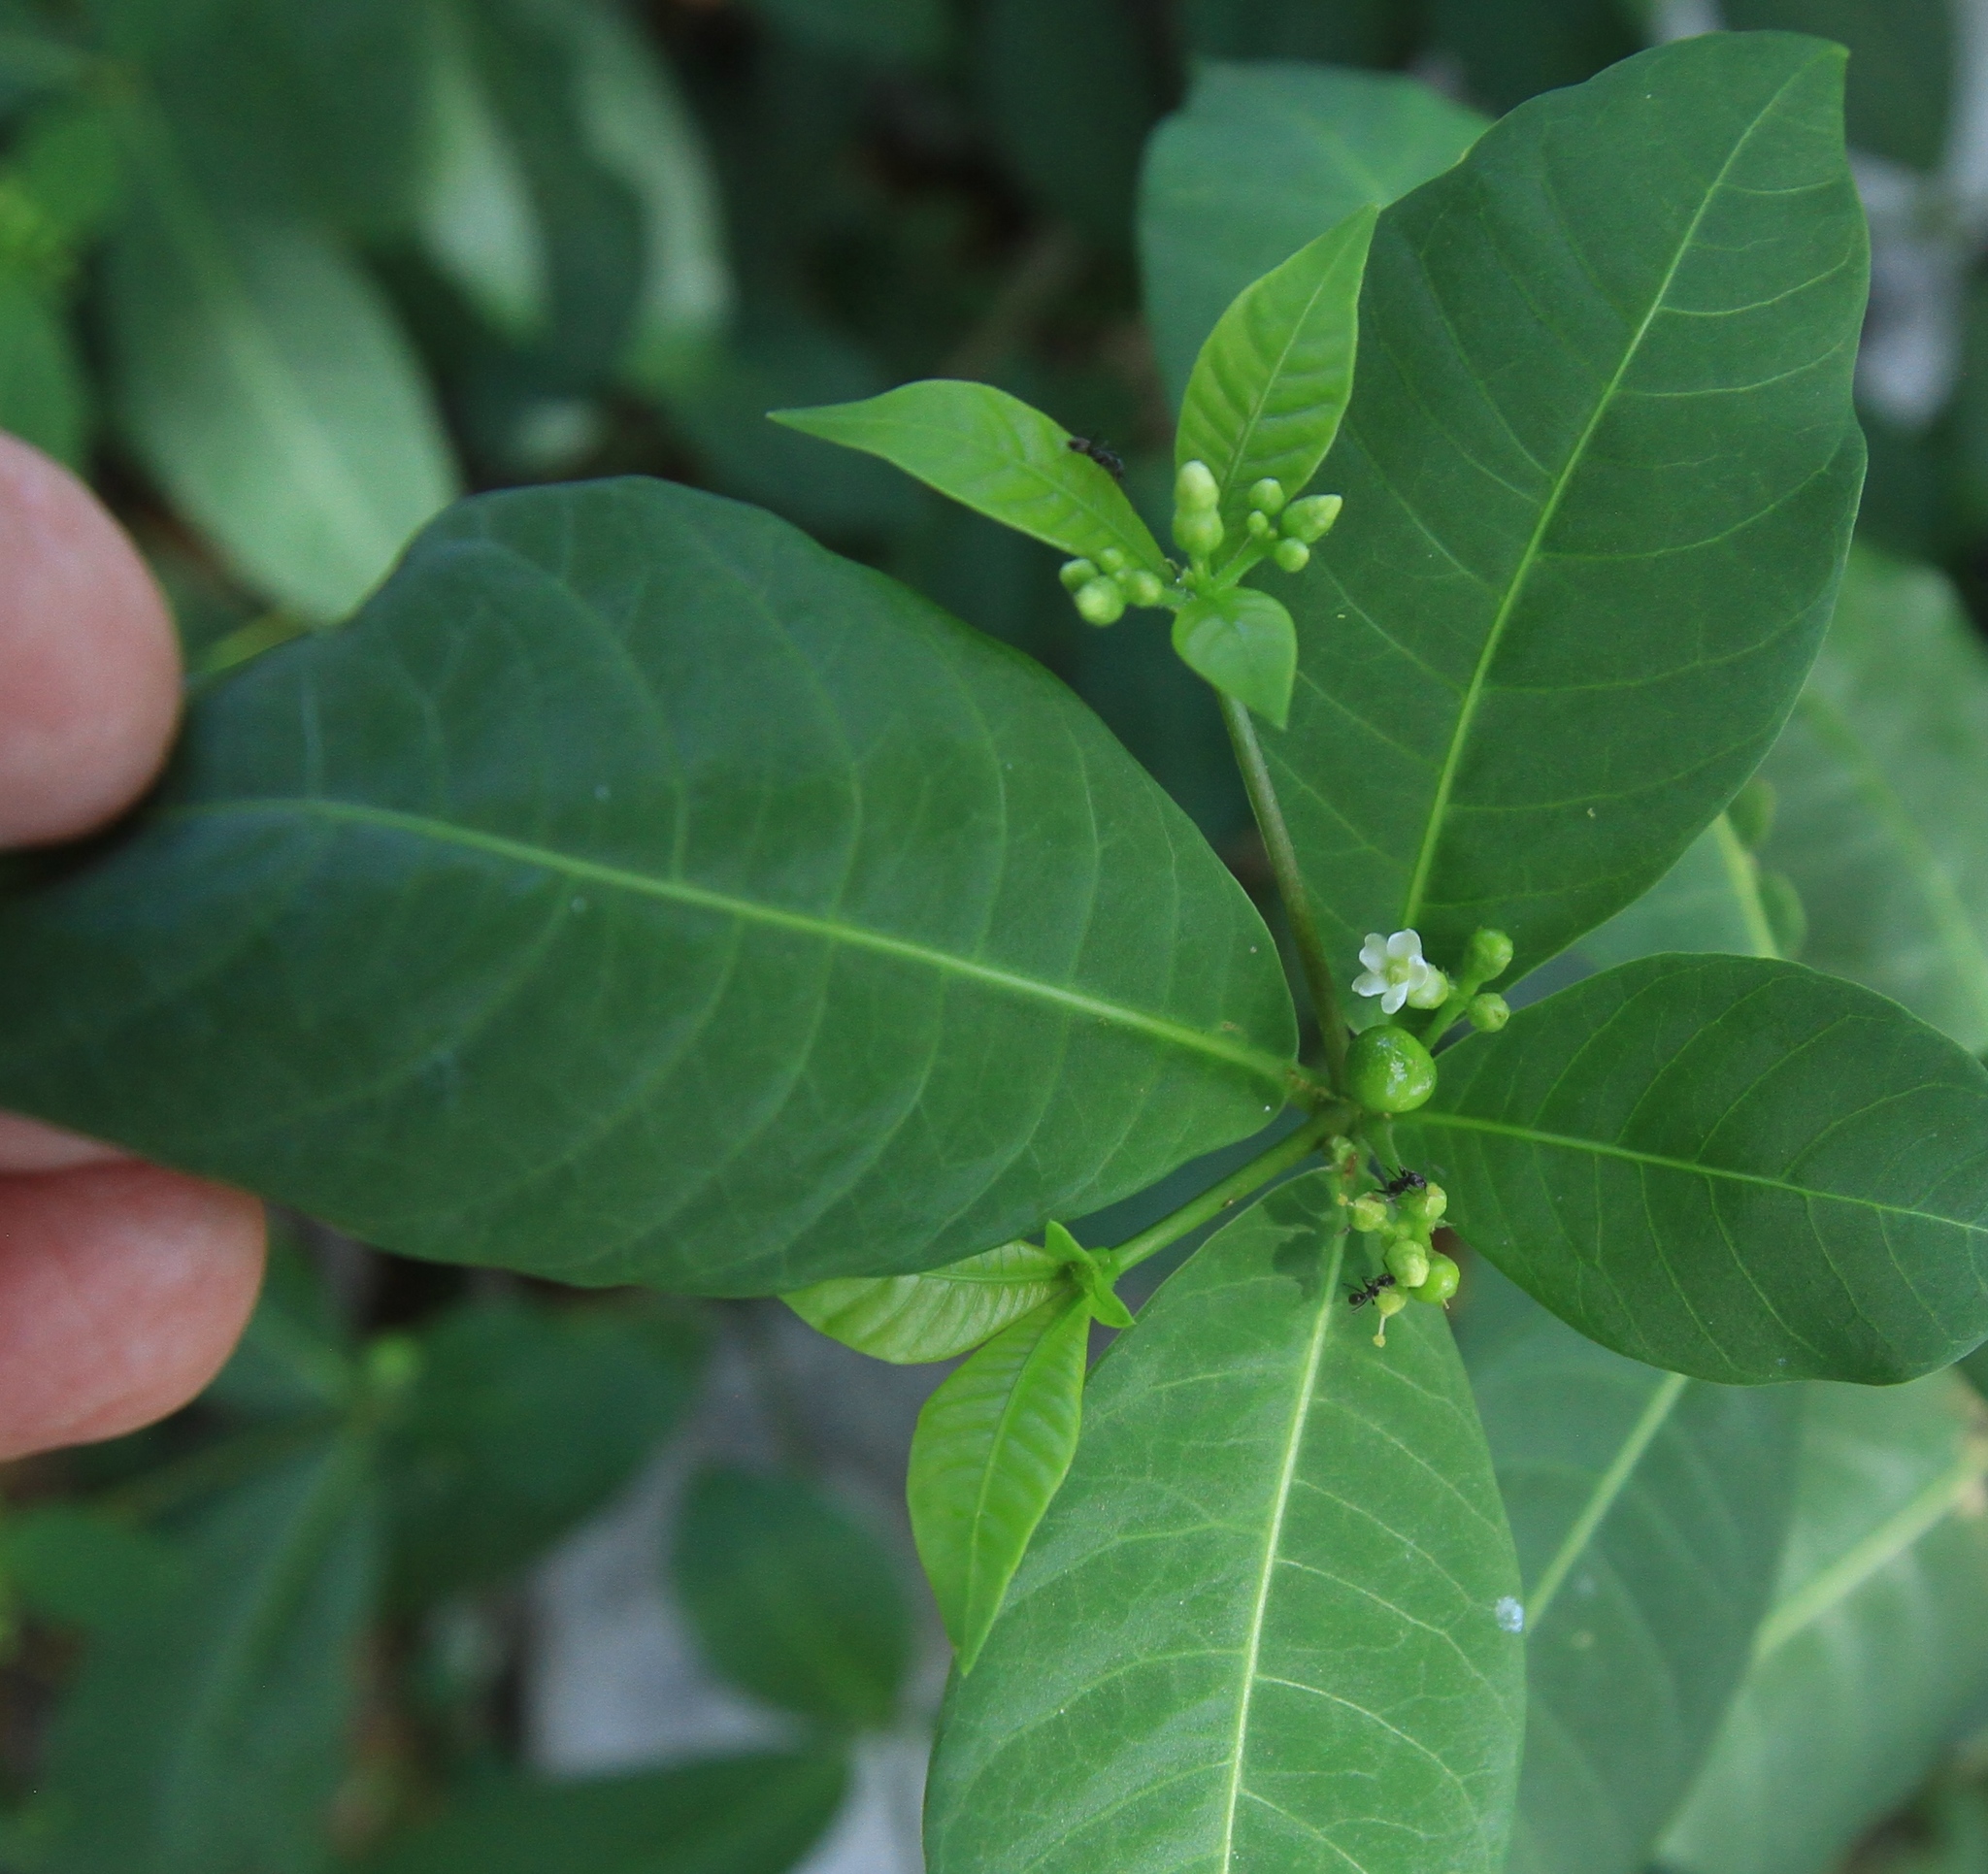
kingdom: Plantae
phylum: Tracheophyta
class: Magnoliopsida
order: Gentianales
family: Apocynaceae
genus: Rauvolfia
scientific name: Rauvolfia tetraphylla
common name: Four-leaf devil-pepper
